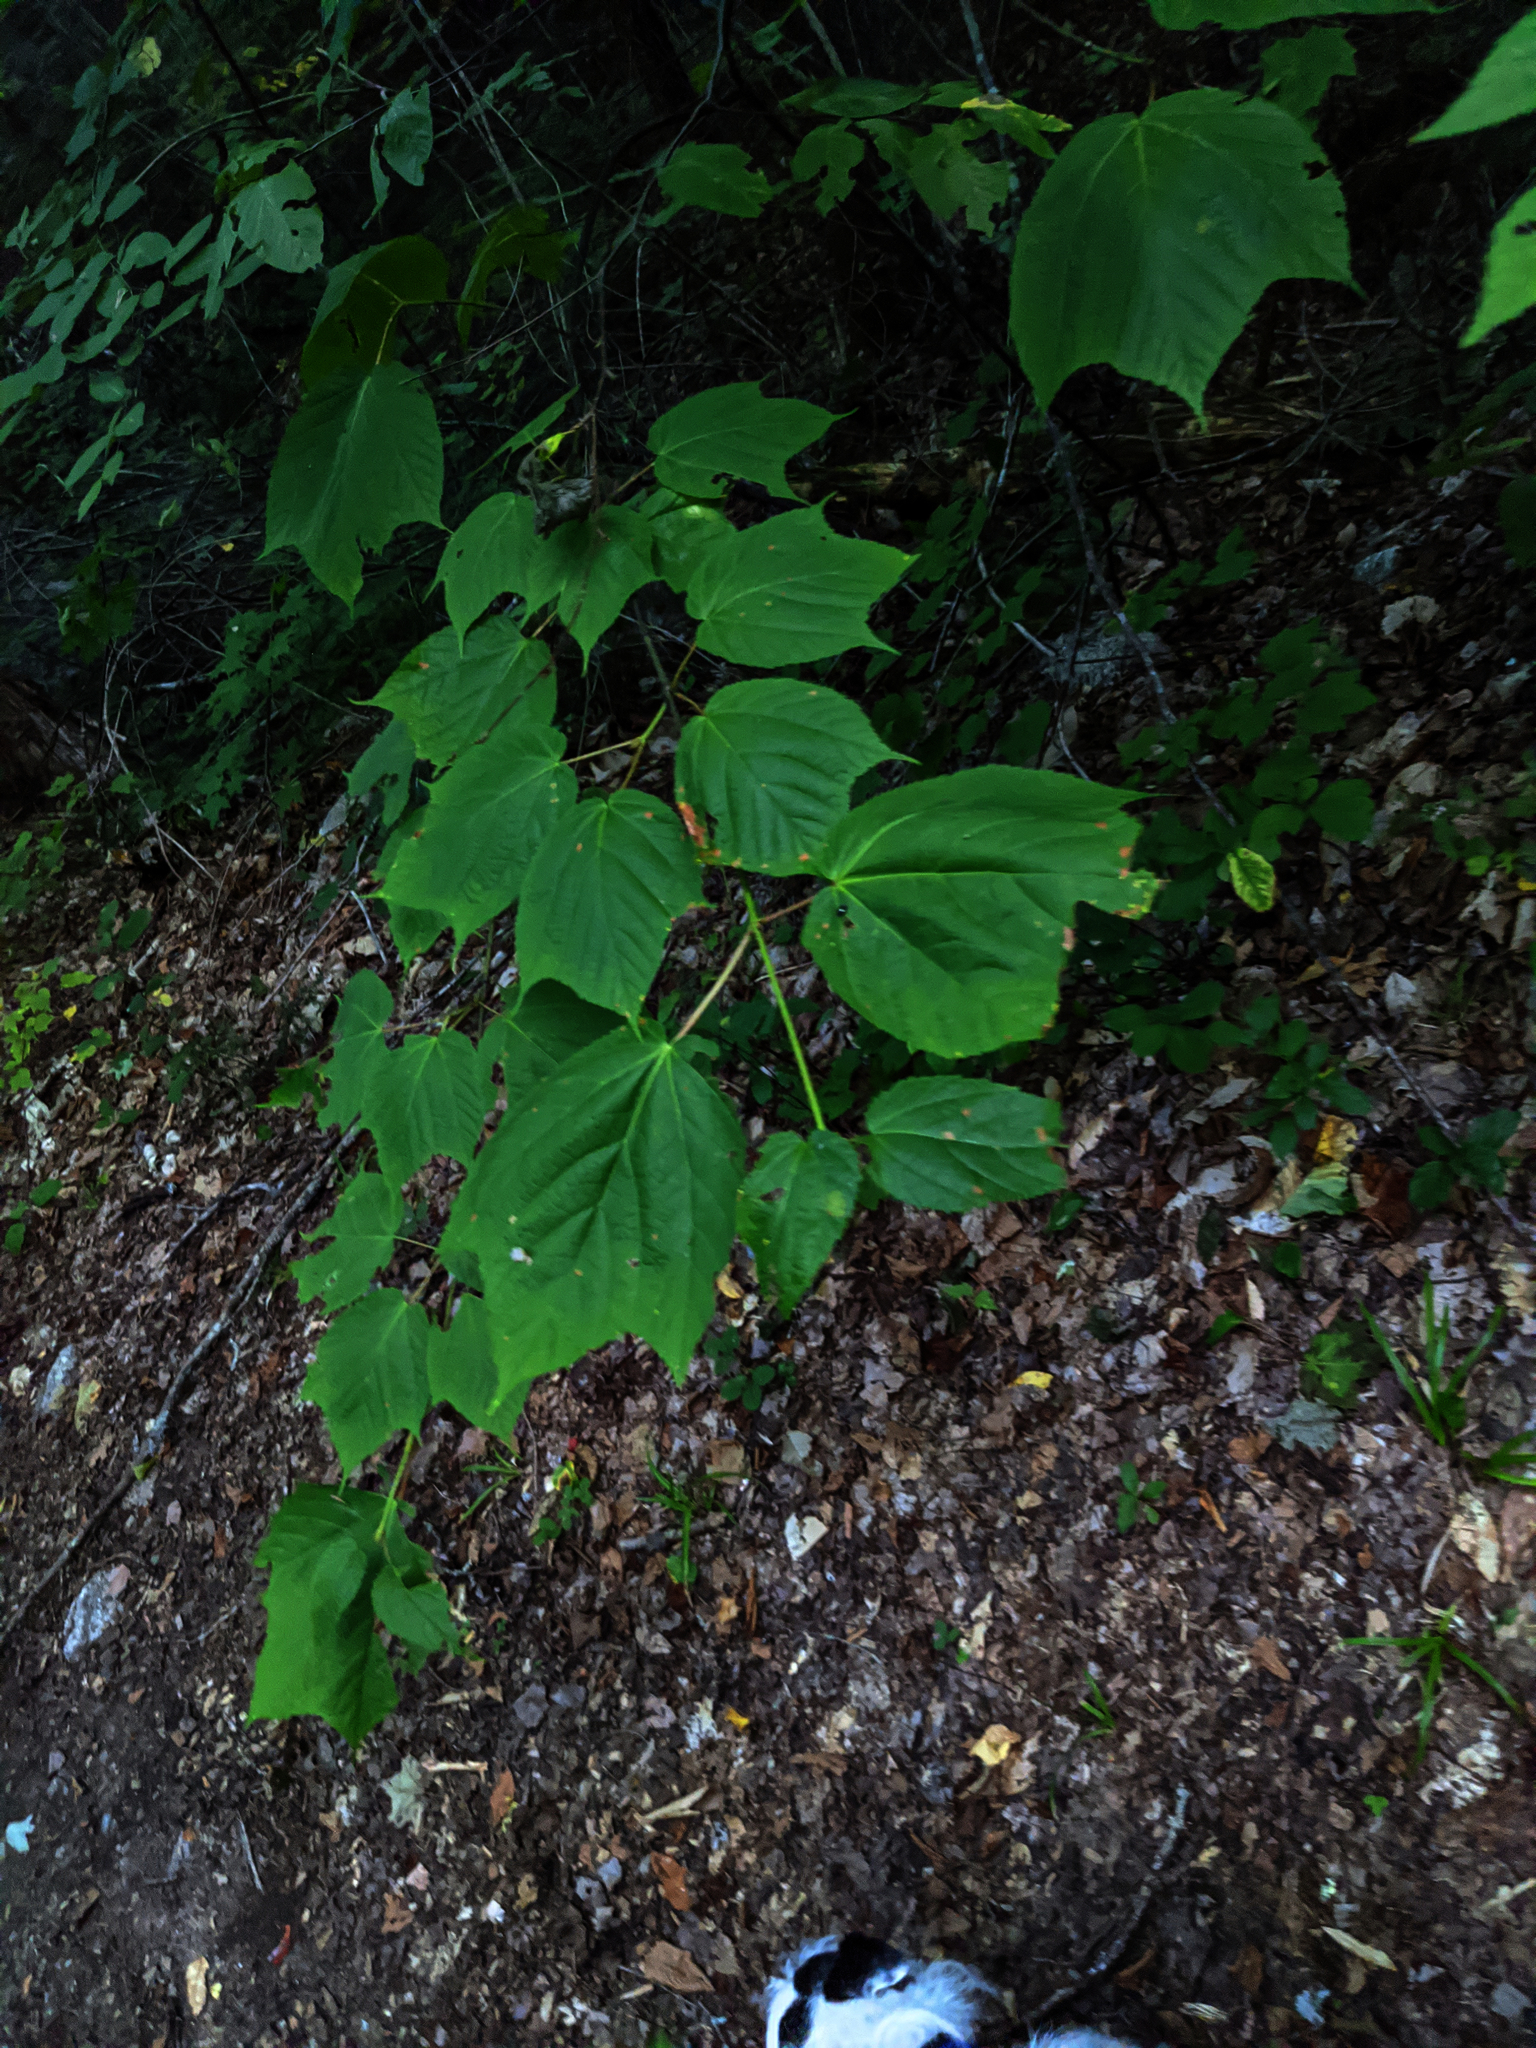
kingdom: Plantae
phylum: Tracheophyta
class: Magnoliopsida
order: Sapindales
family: Sapindaceae
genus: Acer
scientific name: Acer pensylvanicum
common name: Moosewood
